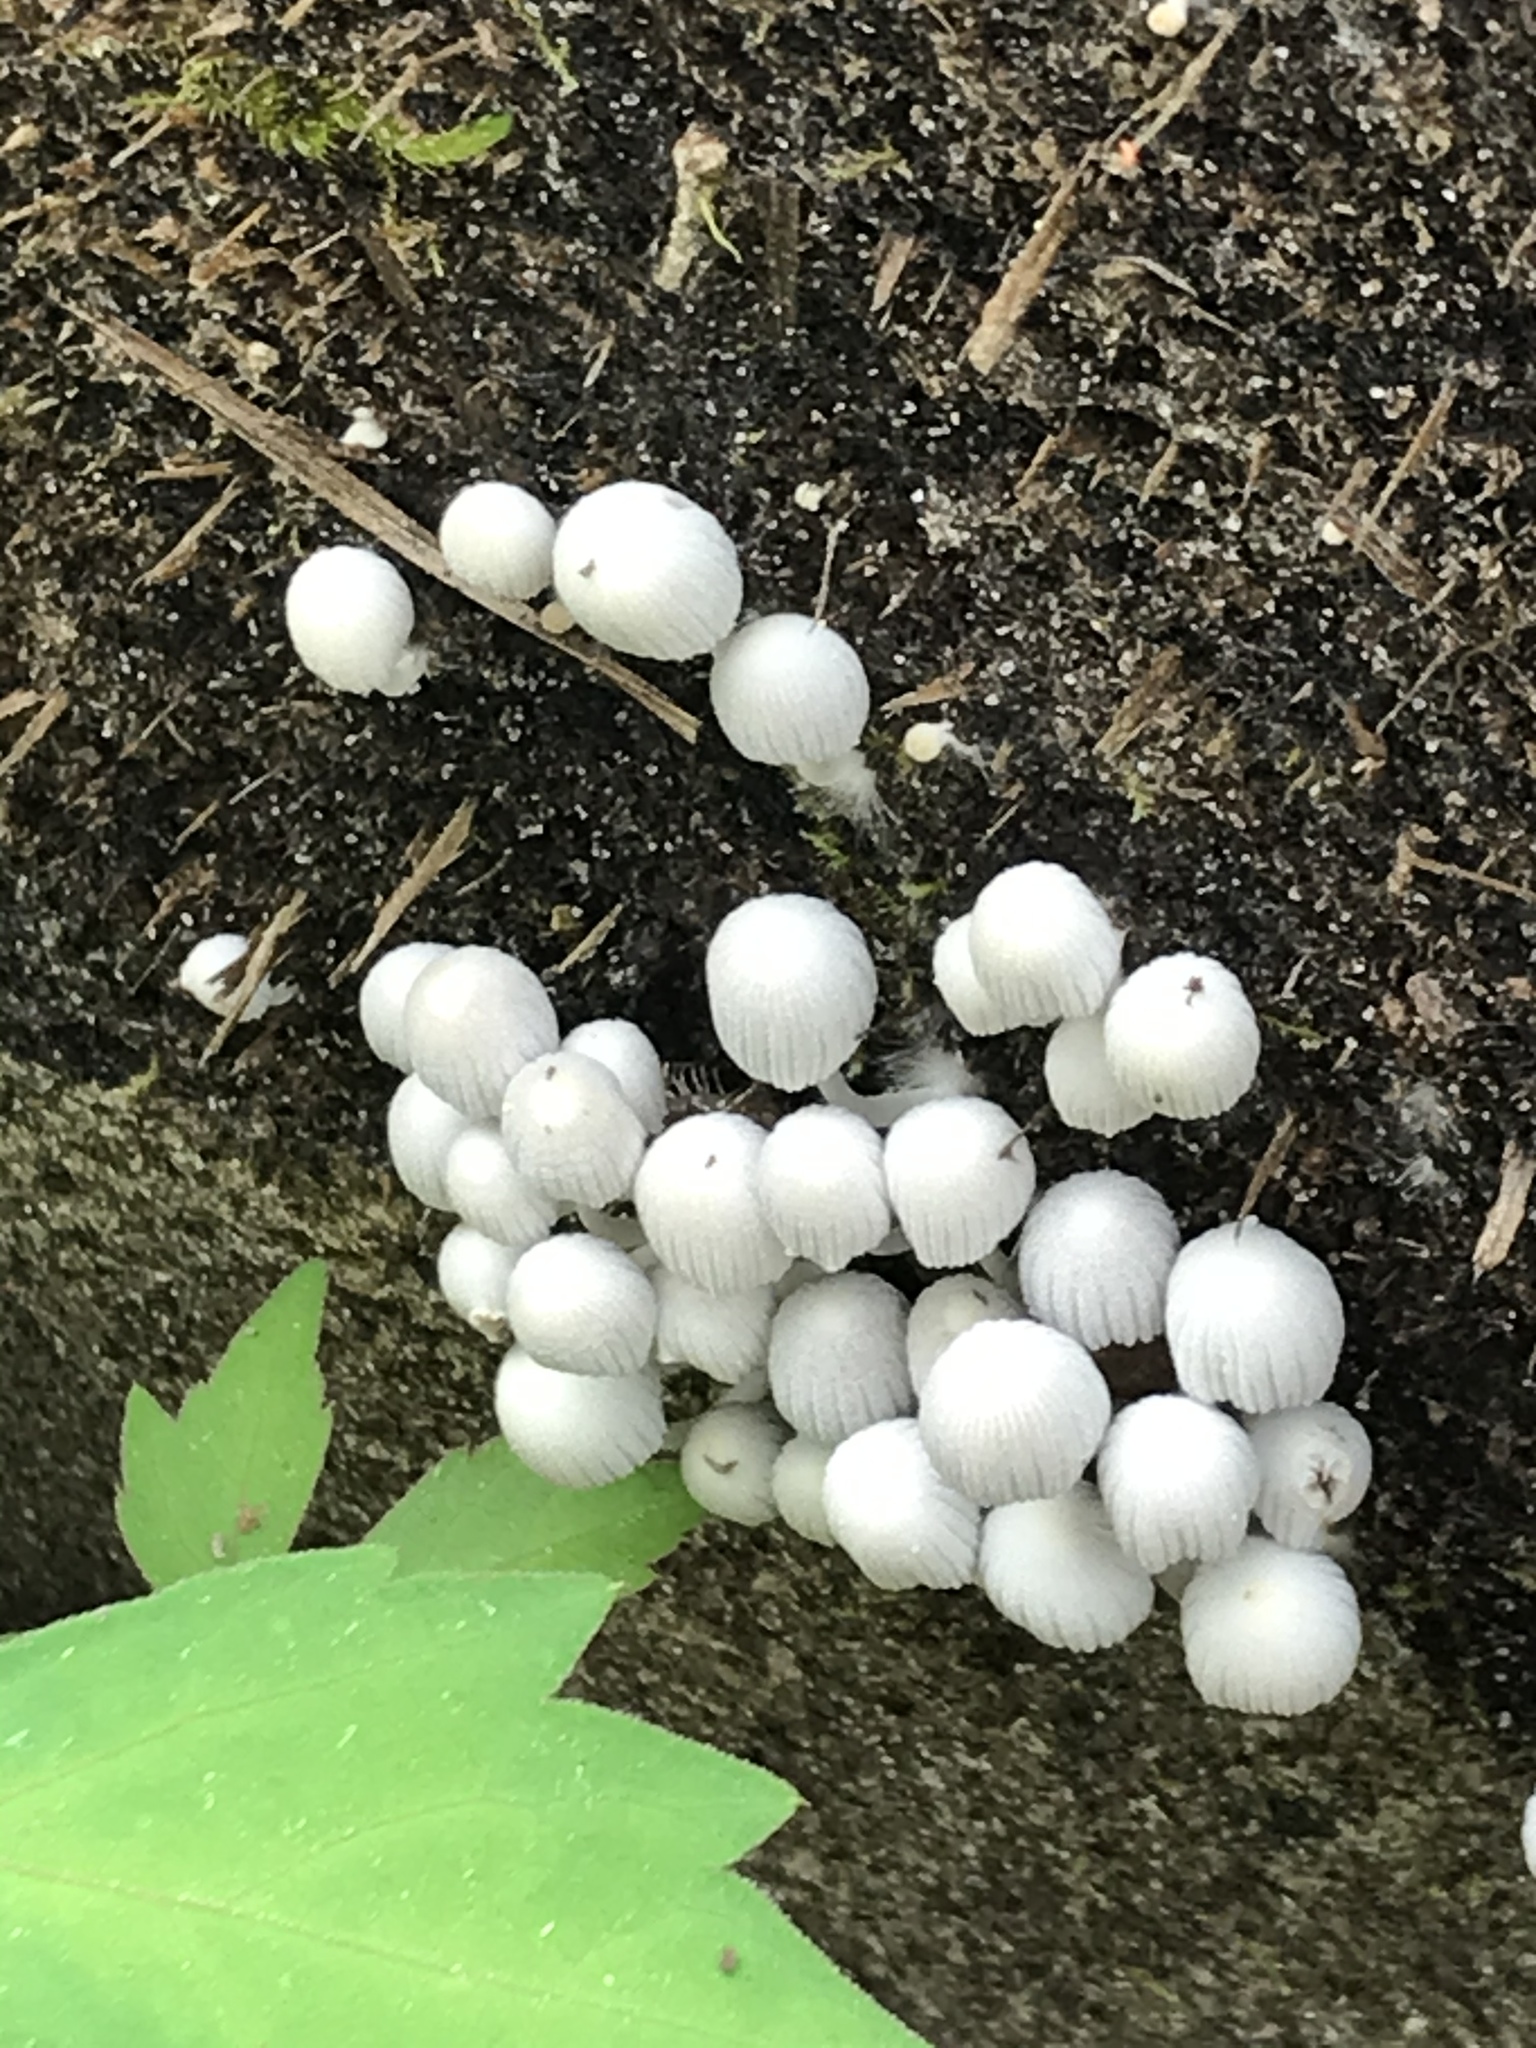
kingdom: Fungi
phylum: Basidiomycota
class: Agaricomycetes
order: Agaricales
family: Psathyrellaceae
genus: Coprinellus
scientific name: Coprinellus disseminatus
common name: Fairies' bonnets
